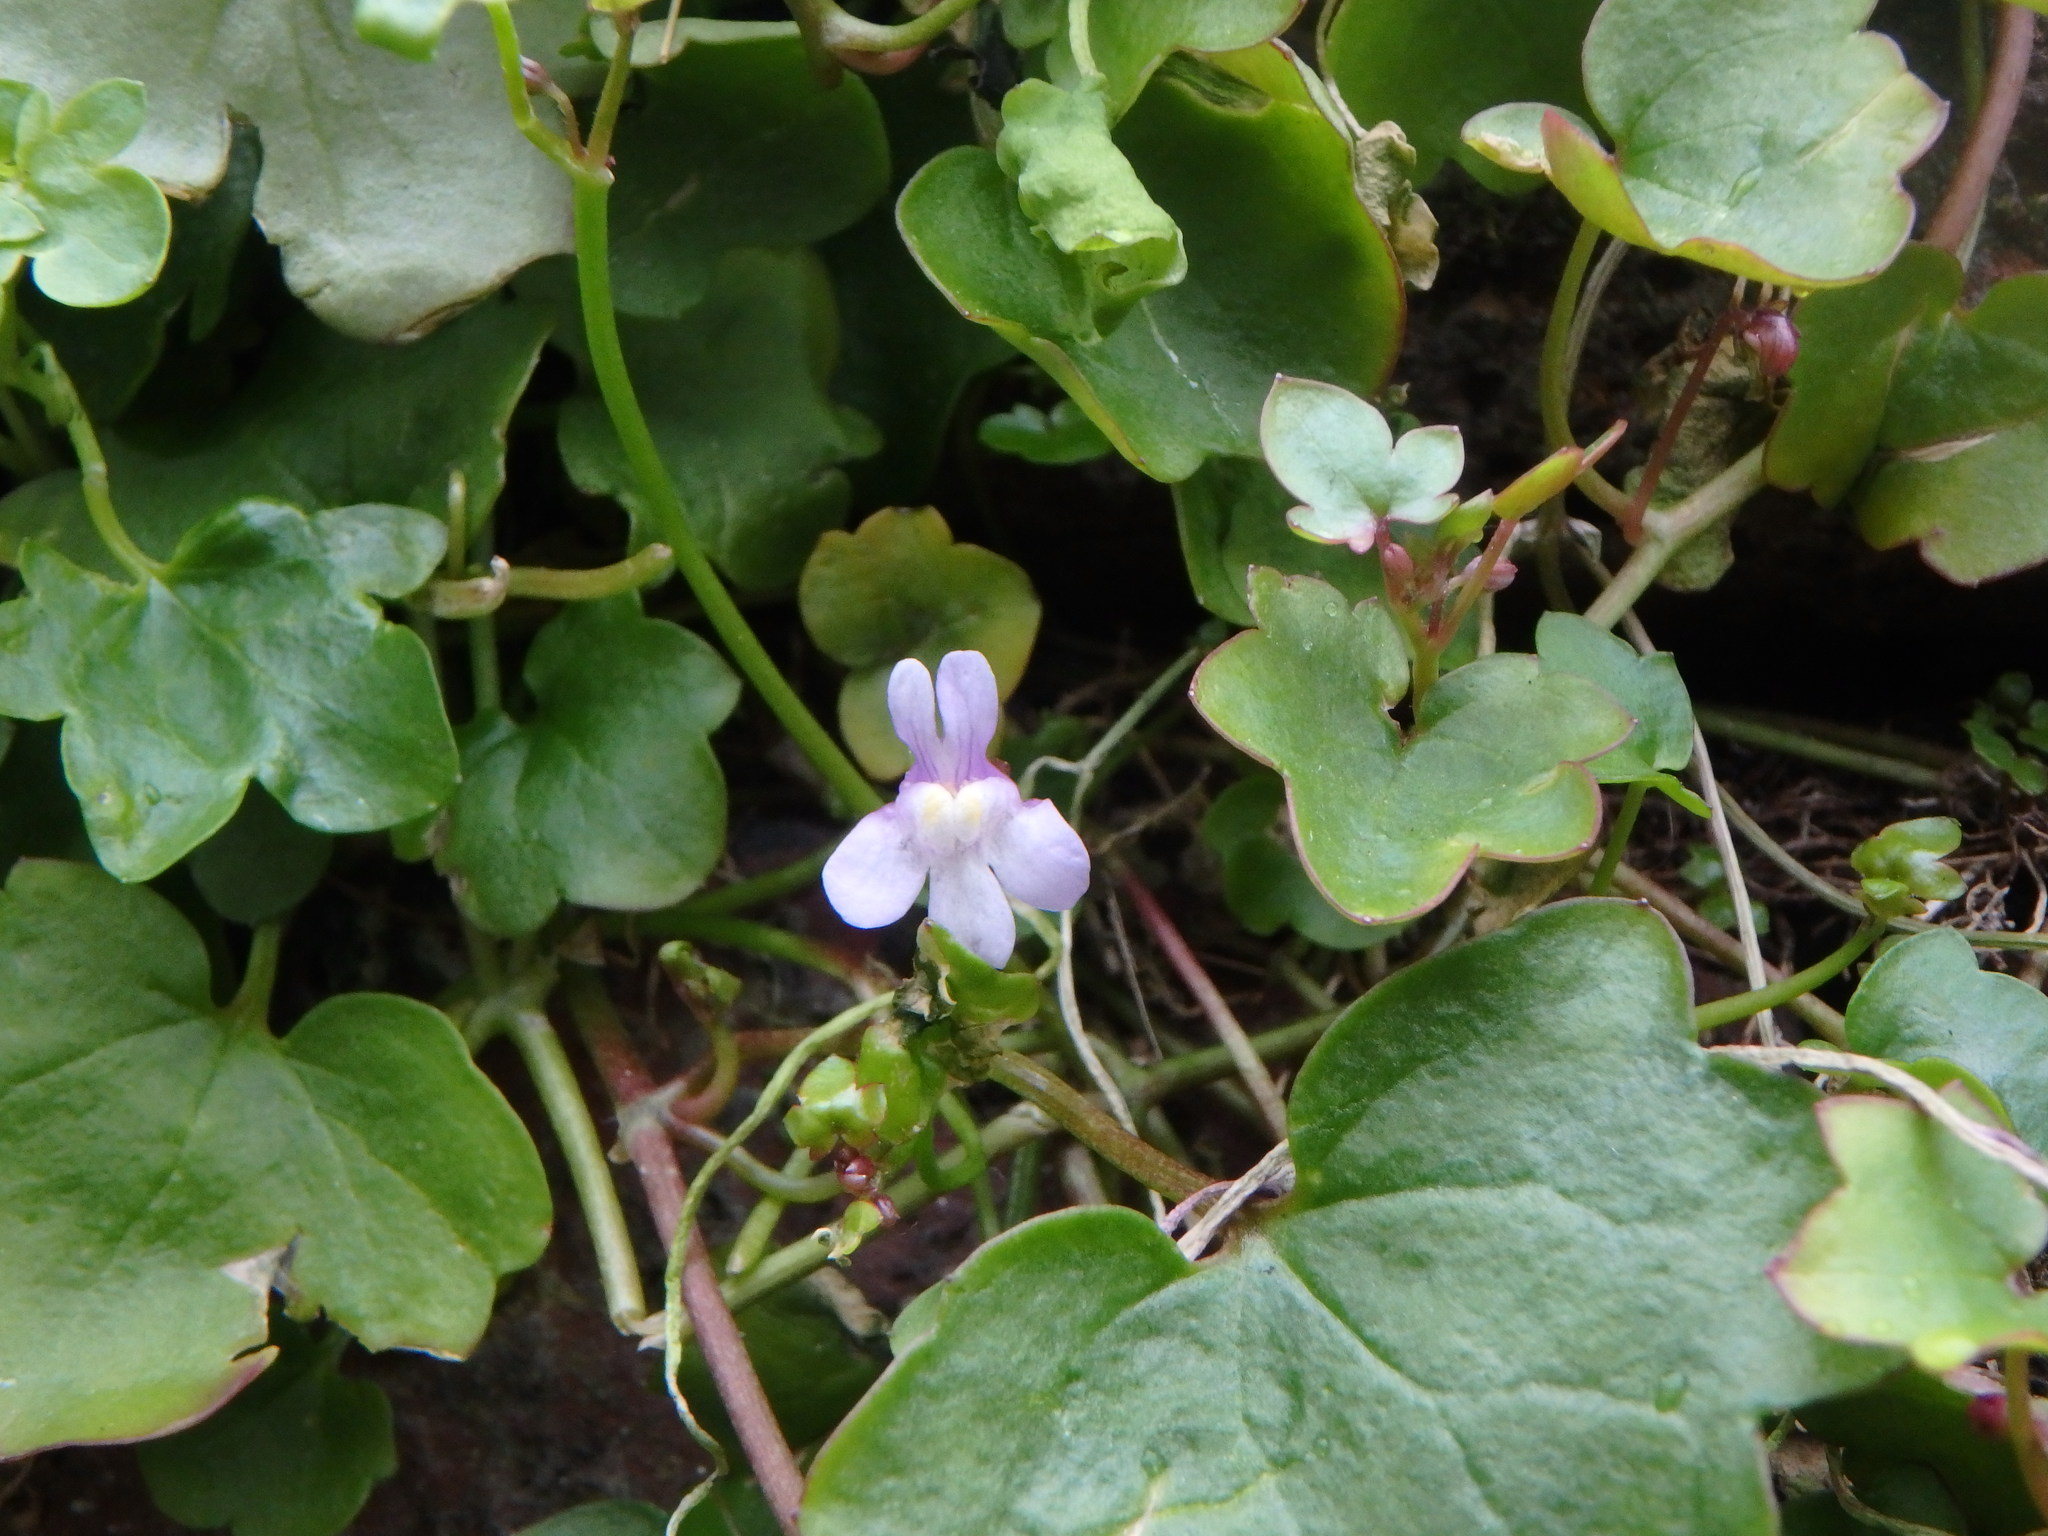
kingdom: Plantae
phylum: Tracheophyta
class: Magnoliopsida
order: Lamiales
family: Plantaginaceae
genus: Cymbalaria
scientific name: Cymbalaria muralis
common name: Ivy-leaved toadflax
